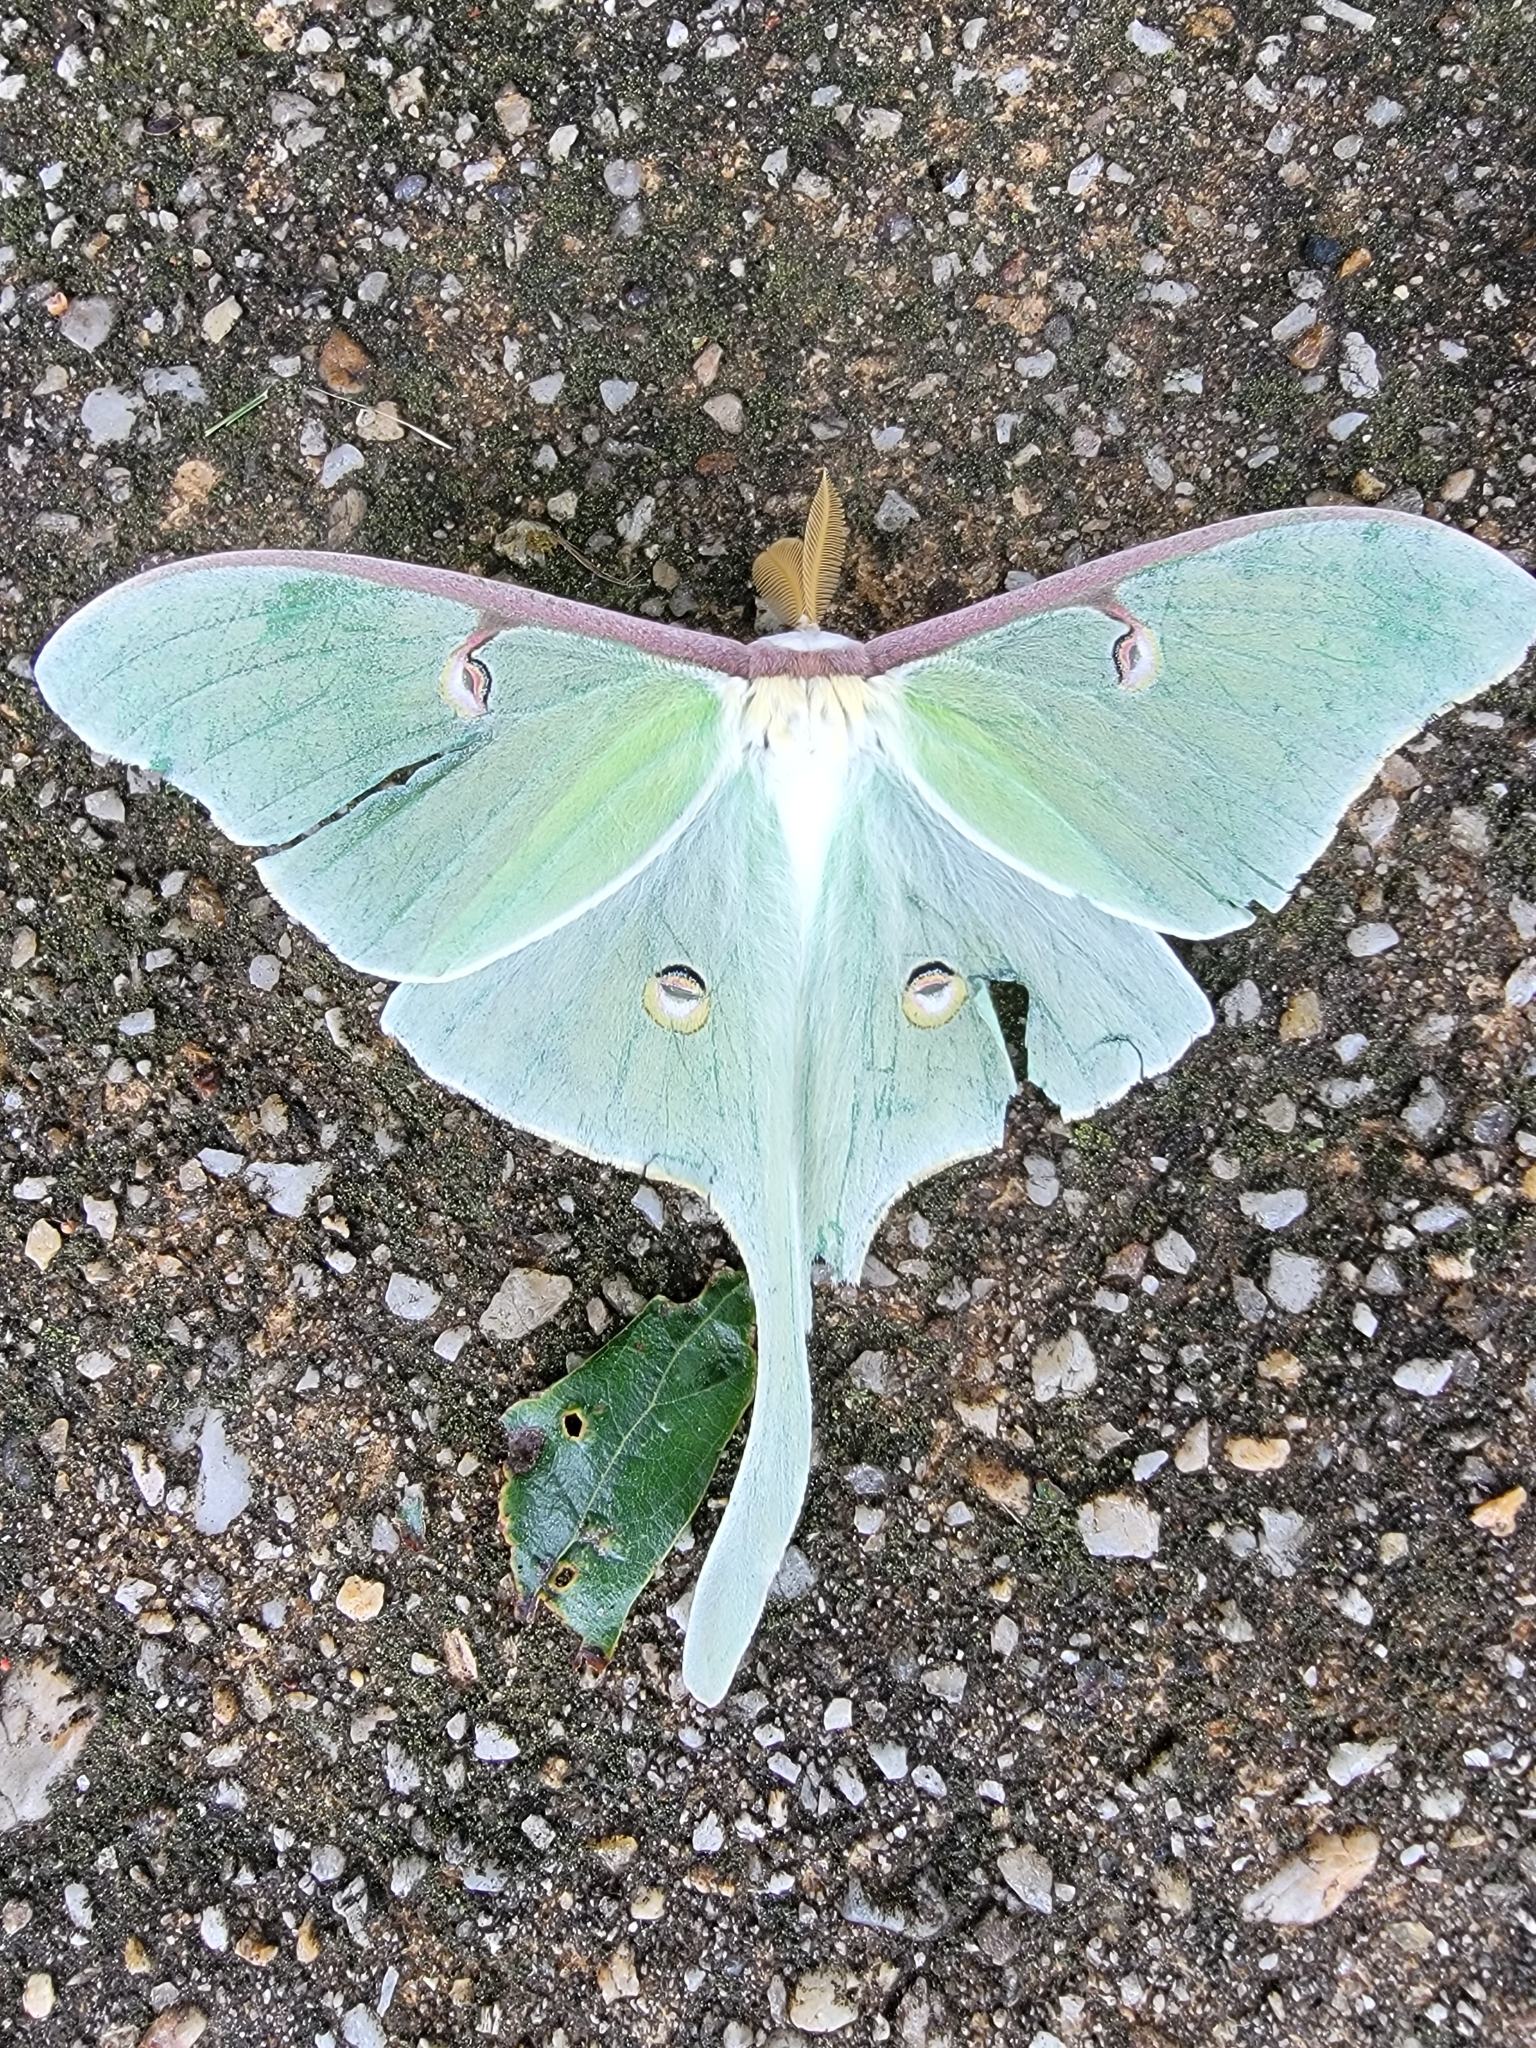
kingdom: Animalia
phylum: Arthropoda
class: Insecta
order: Lepidoptera
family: Saturniidae
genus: Actias
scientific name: Actias luna
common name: Luna moth
